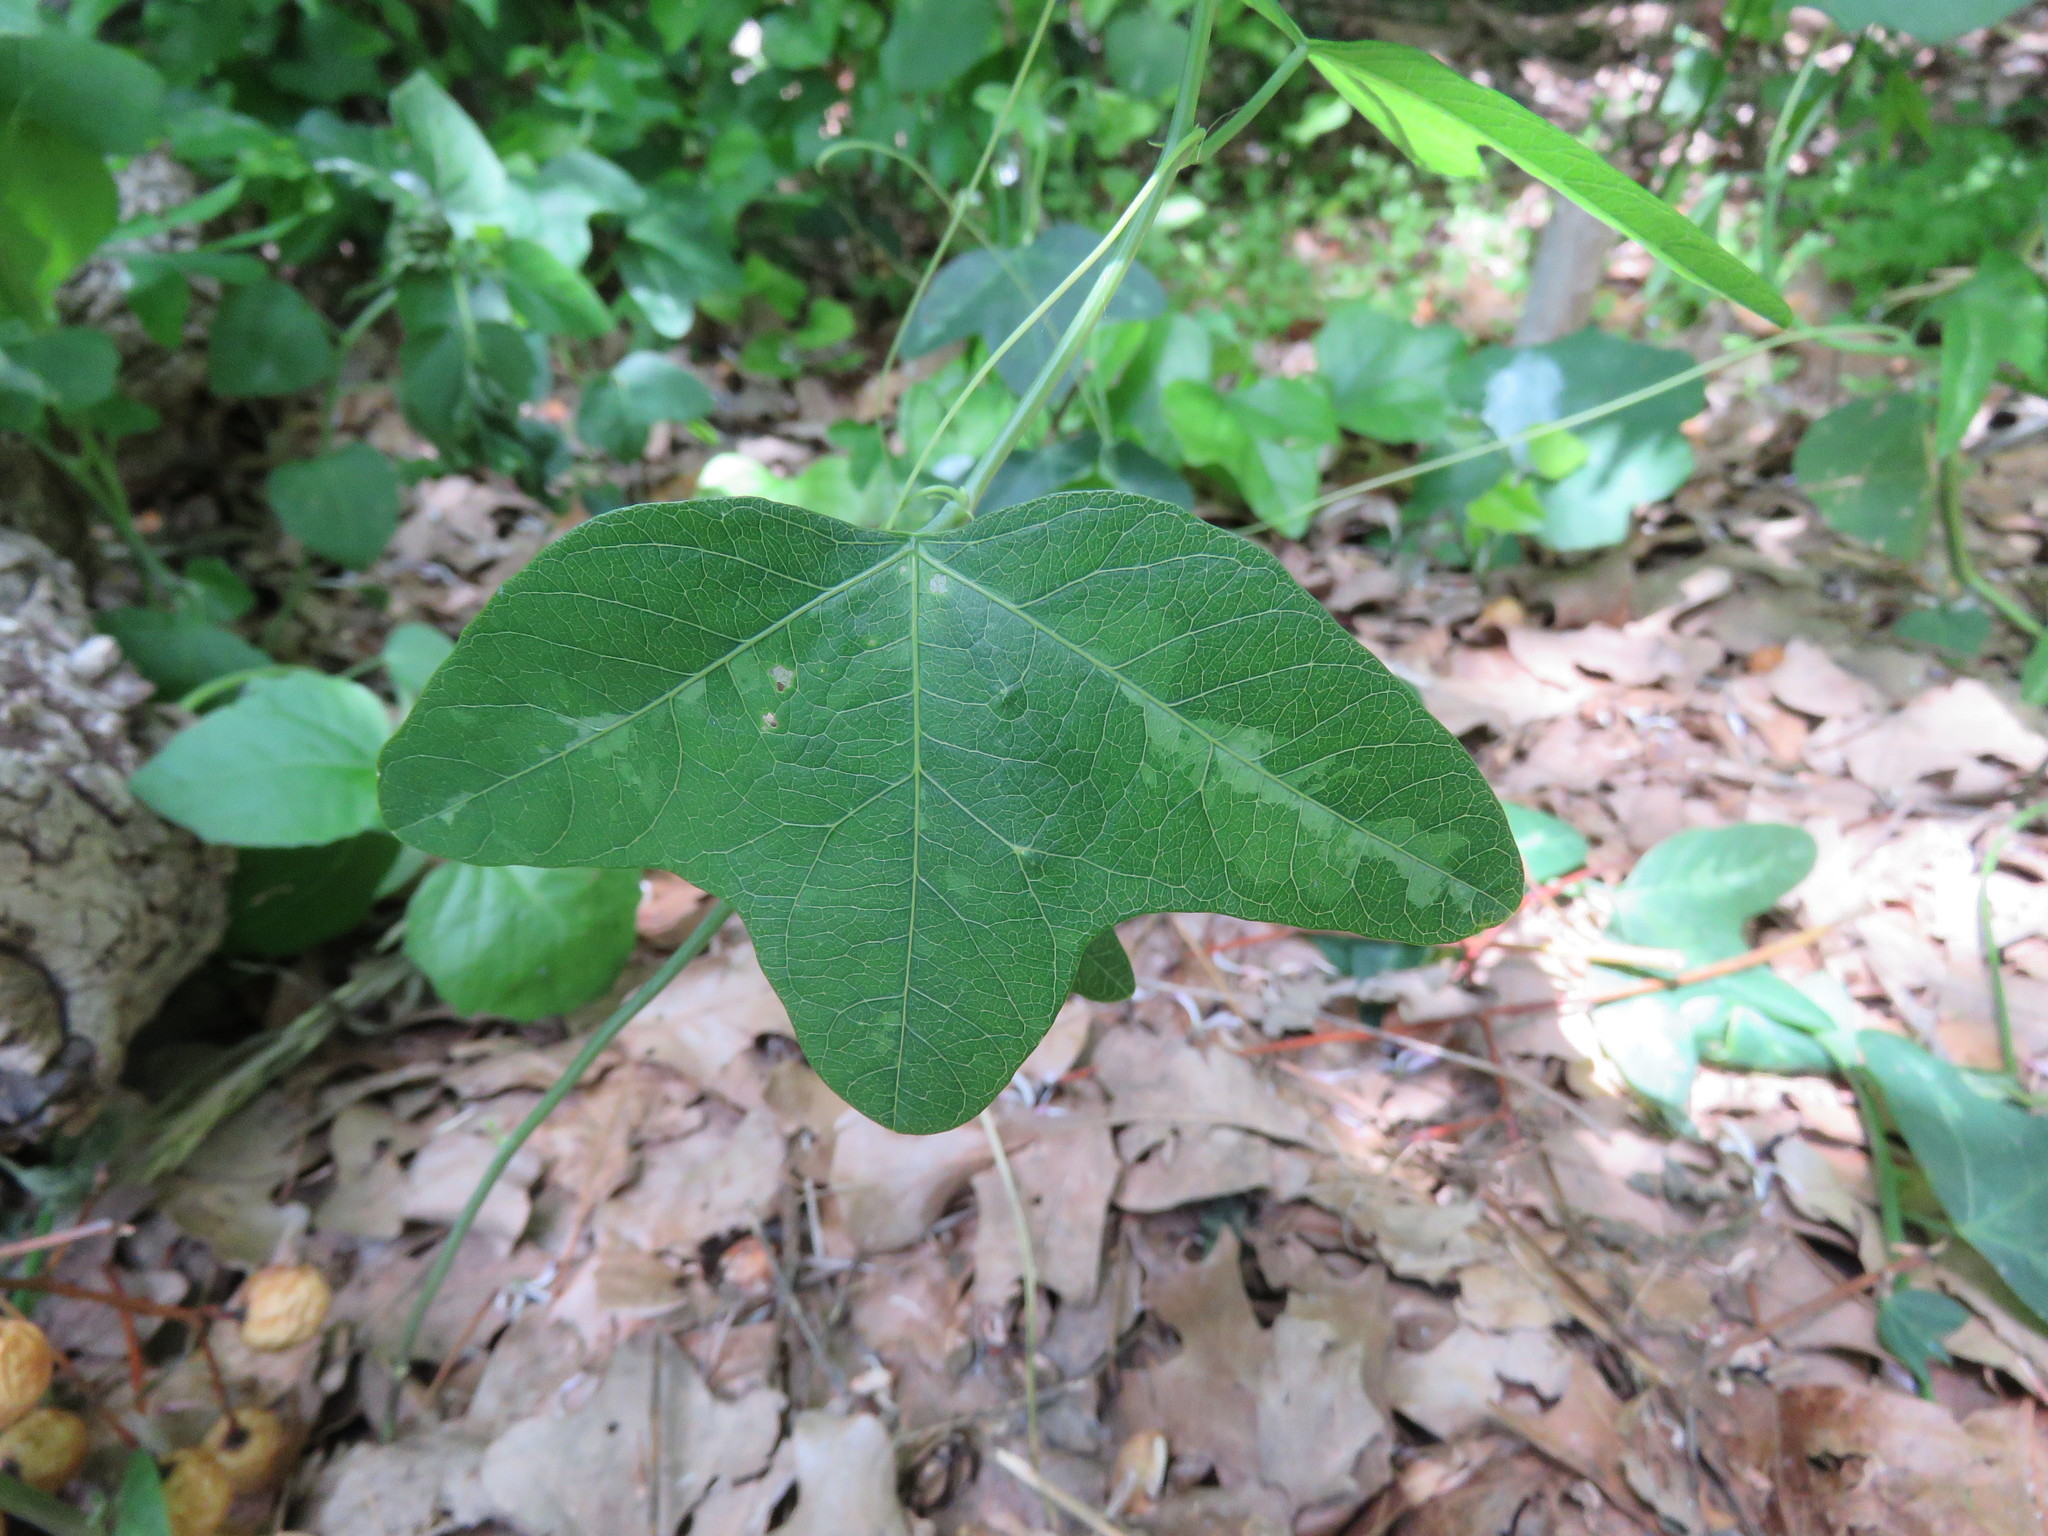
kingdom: Plantae
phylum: Tracheophyta
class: Magnoliopsida
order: Malpighiales
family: Passifloraceae
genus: Passiflora
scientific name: Passiflora lutea
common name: Yellow passionflower
